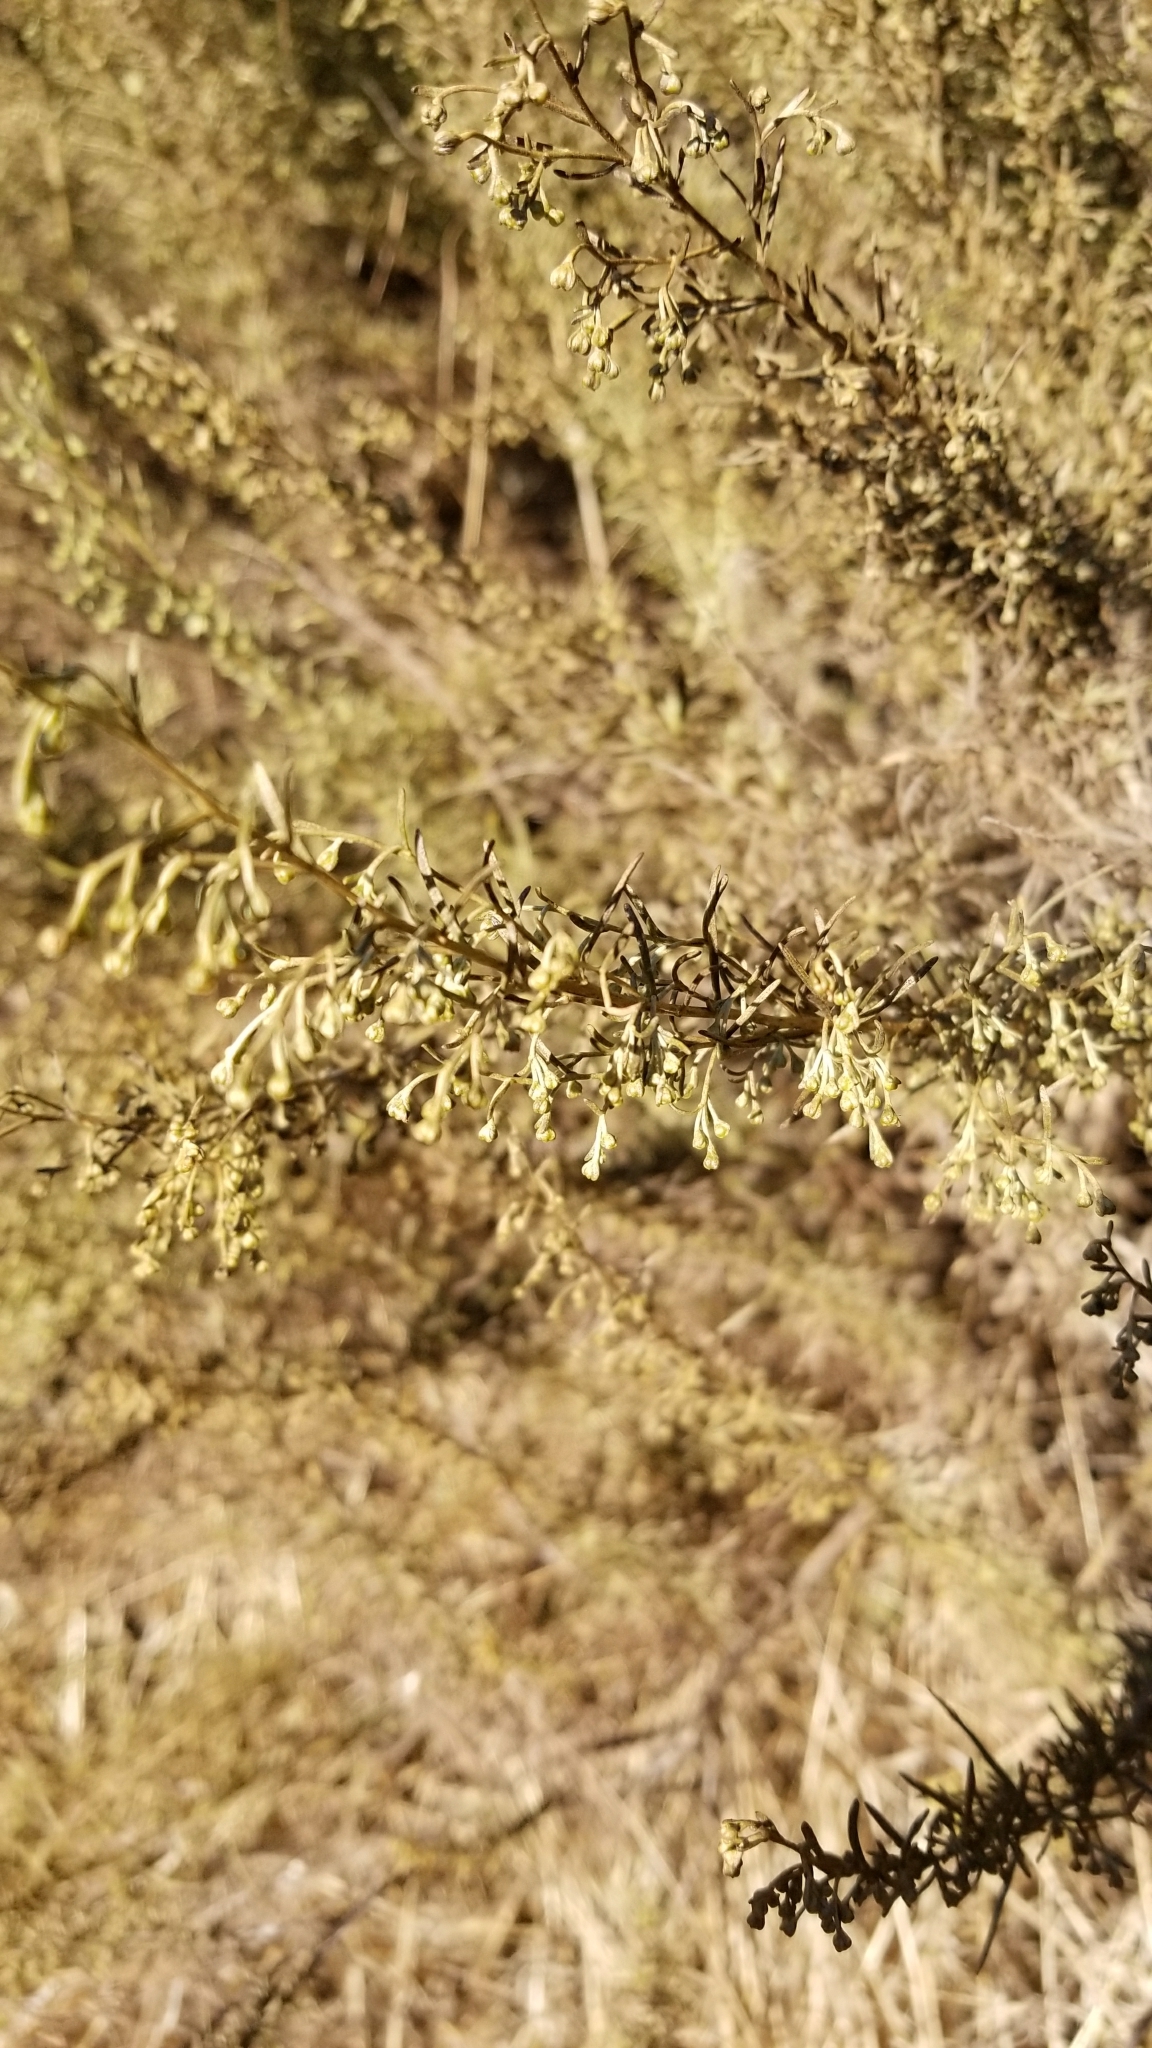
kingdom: Plantae
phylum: Tracheophyta
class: Magnoliopsida
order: Asterales
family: Asteraceae
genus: Artemisia
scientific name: Artemisia californica
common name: California sagebrush
